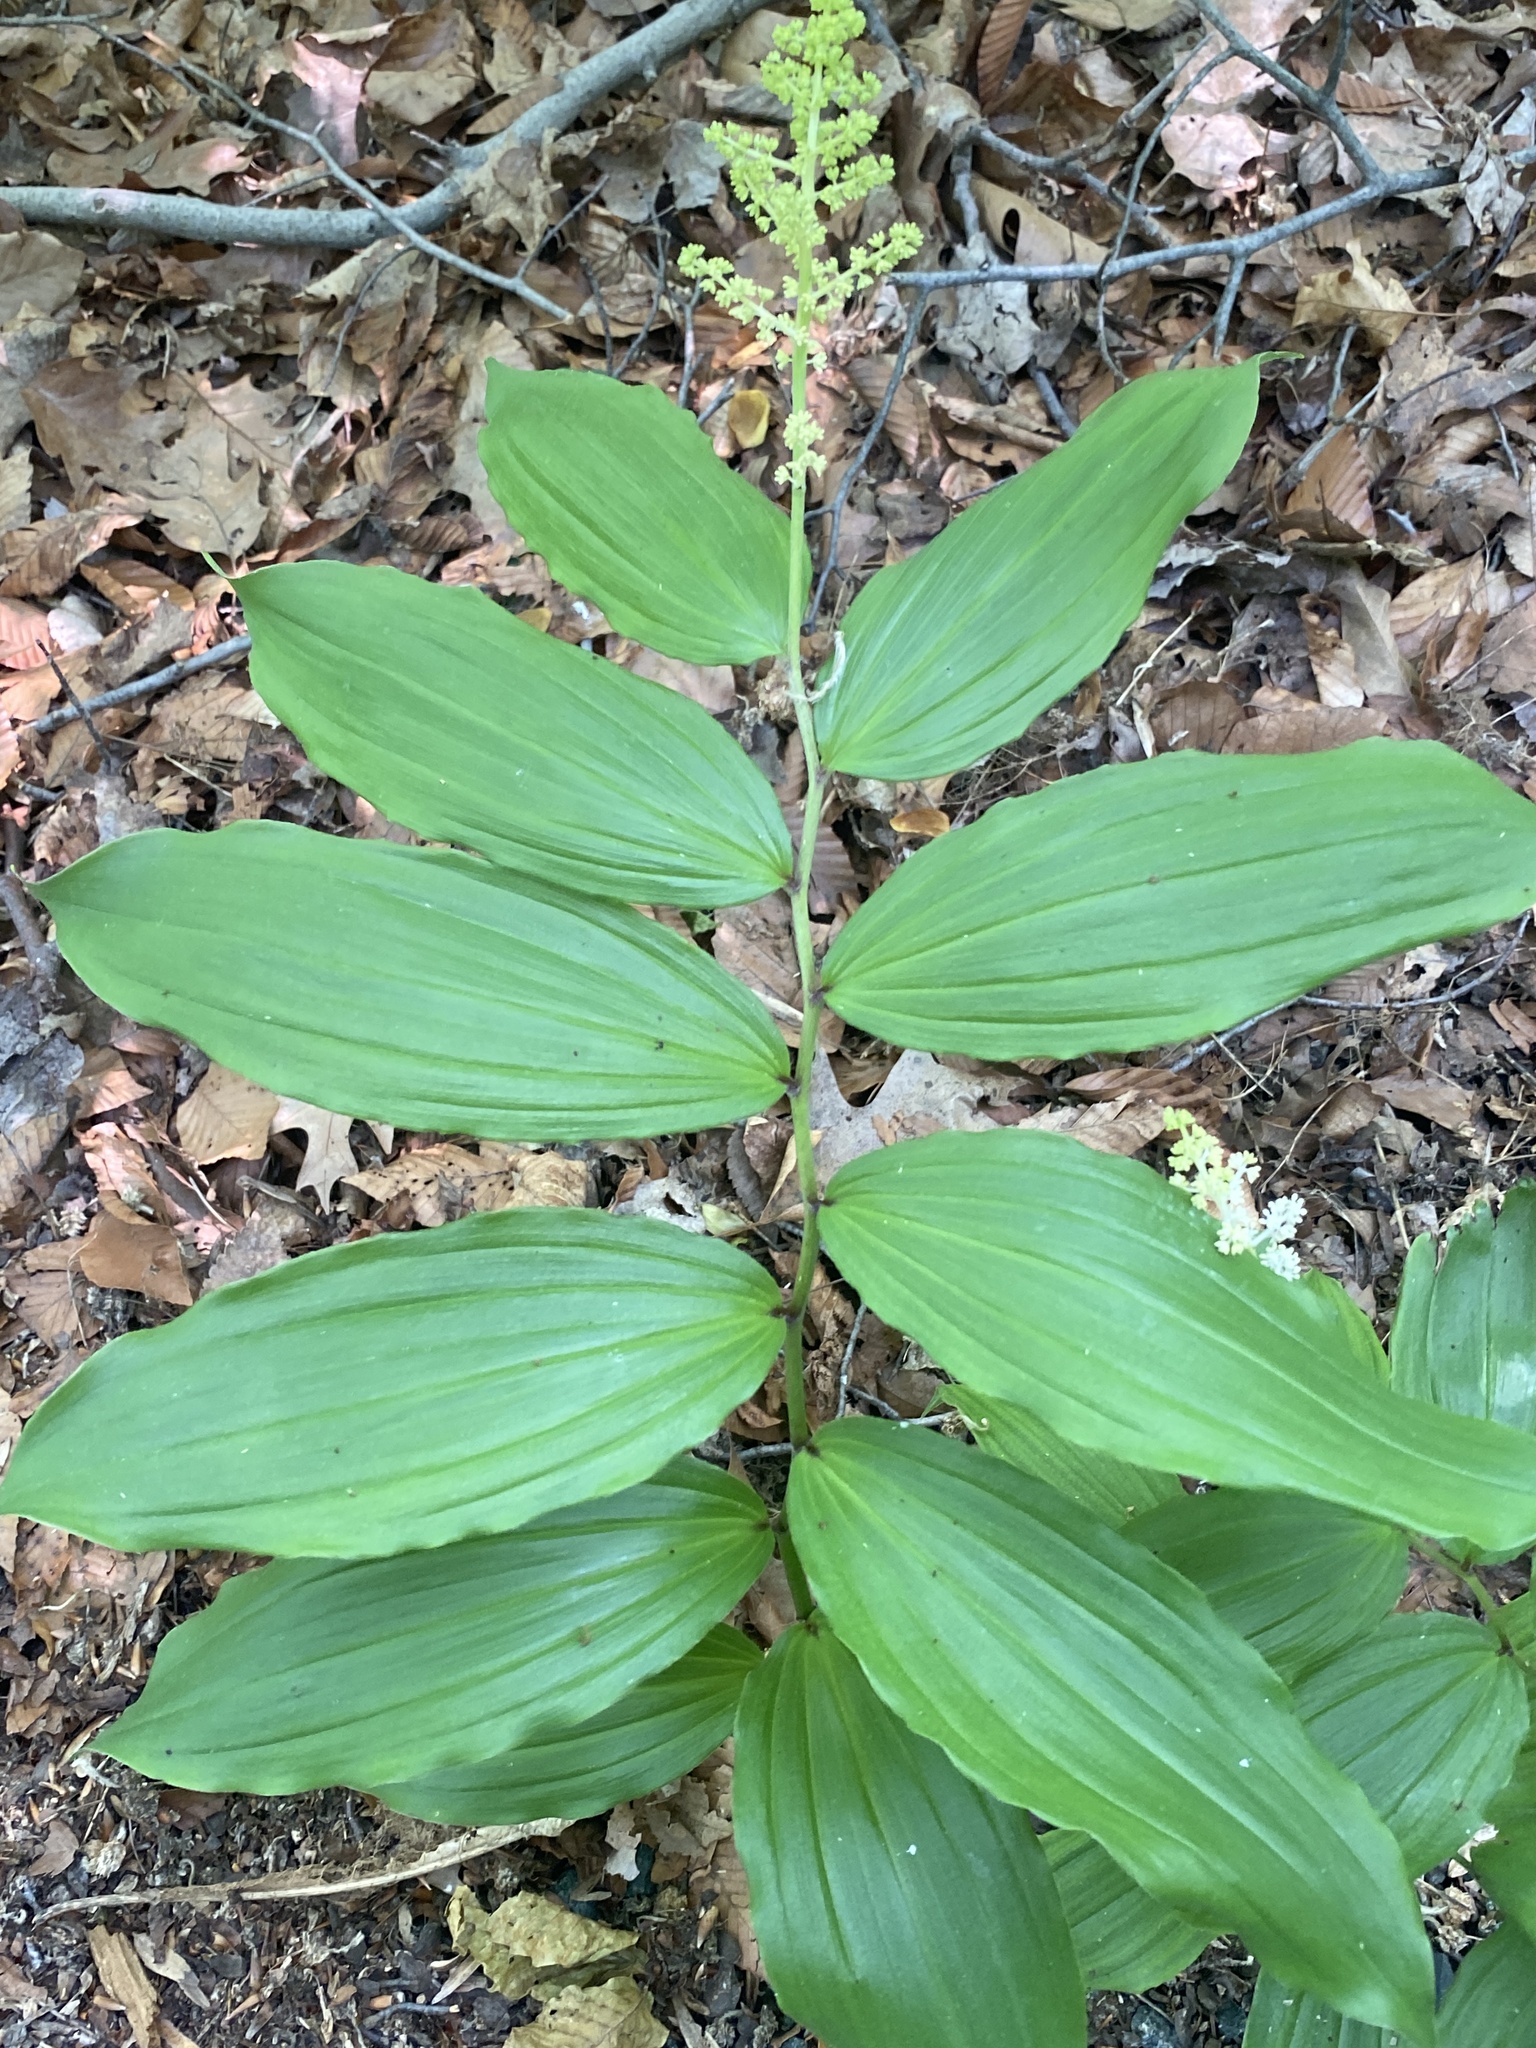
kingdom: Plantae
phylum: Tracheophyta
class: Liliopsida
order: Asparagales
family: Asparagaceae
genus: Maianthemum
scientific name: Maianthemum racemosum
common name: False spikenard
